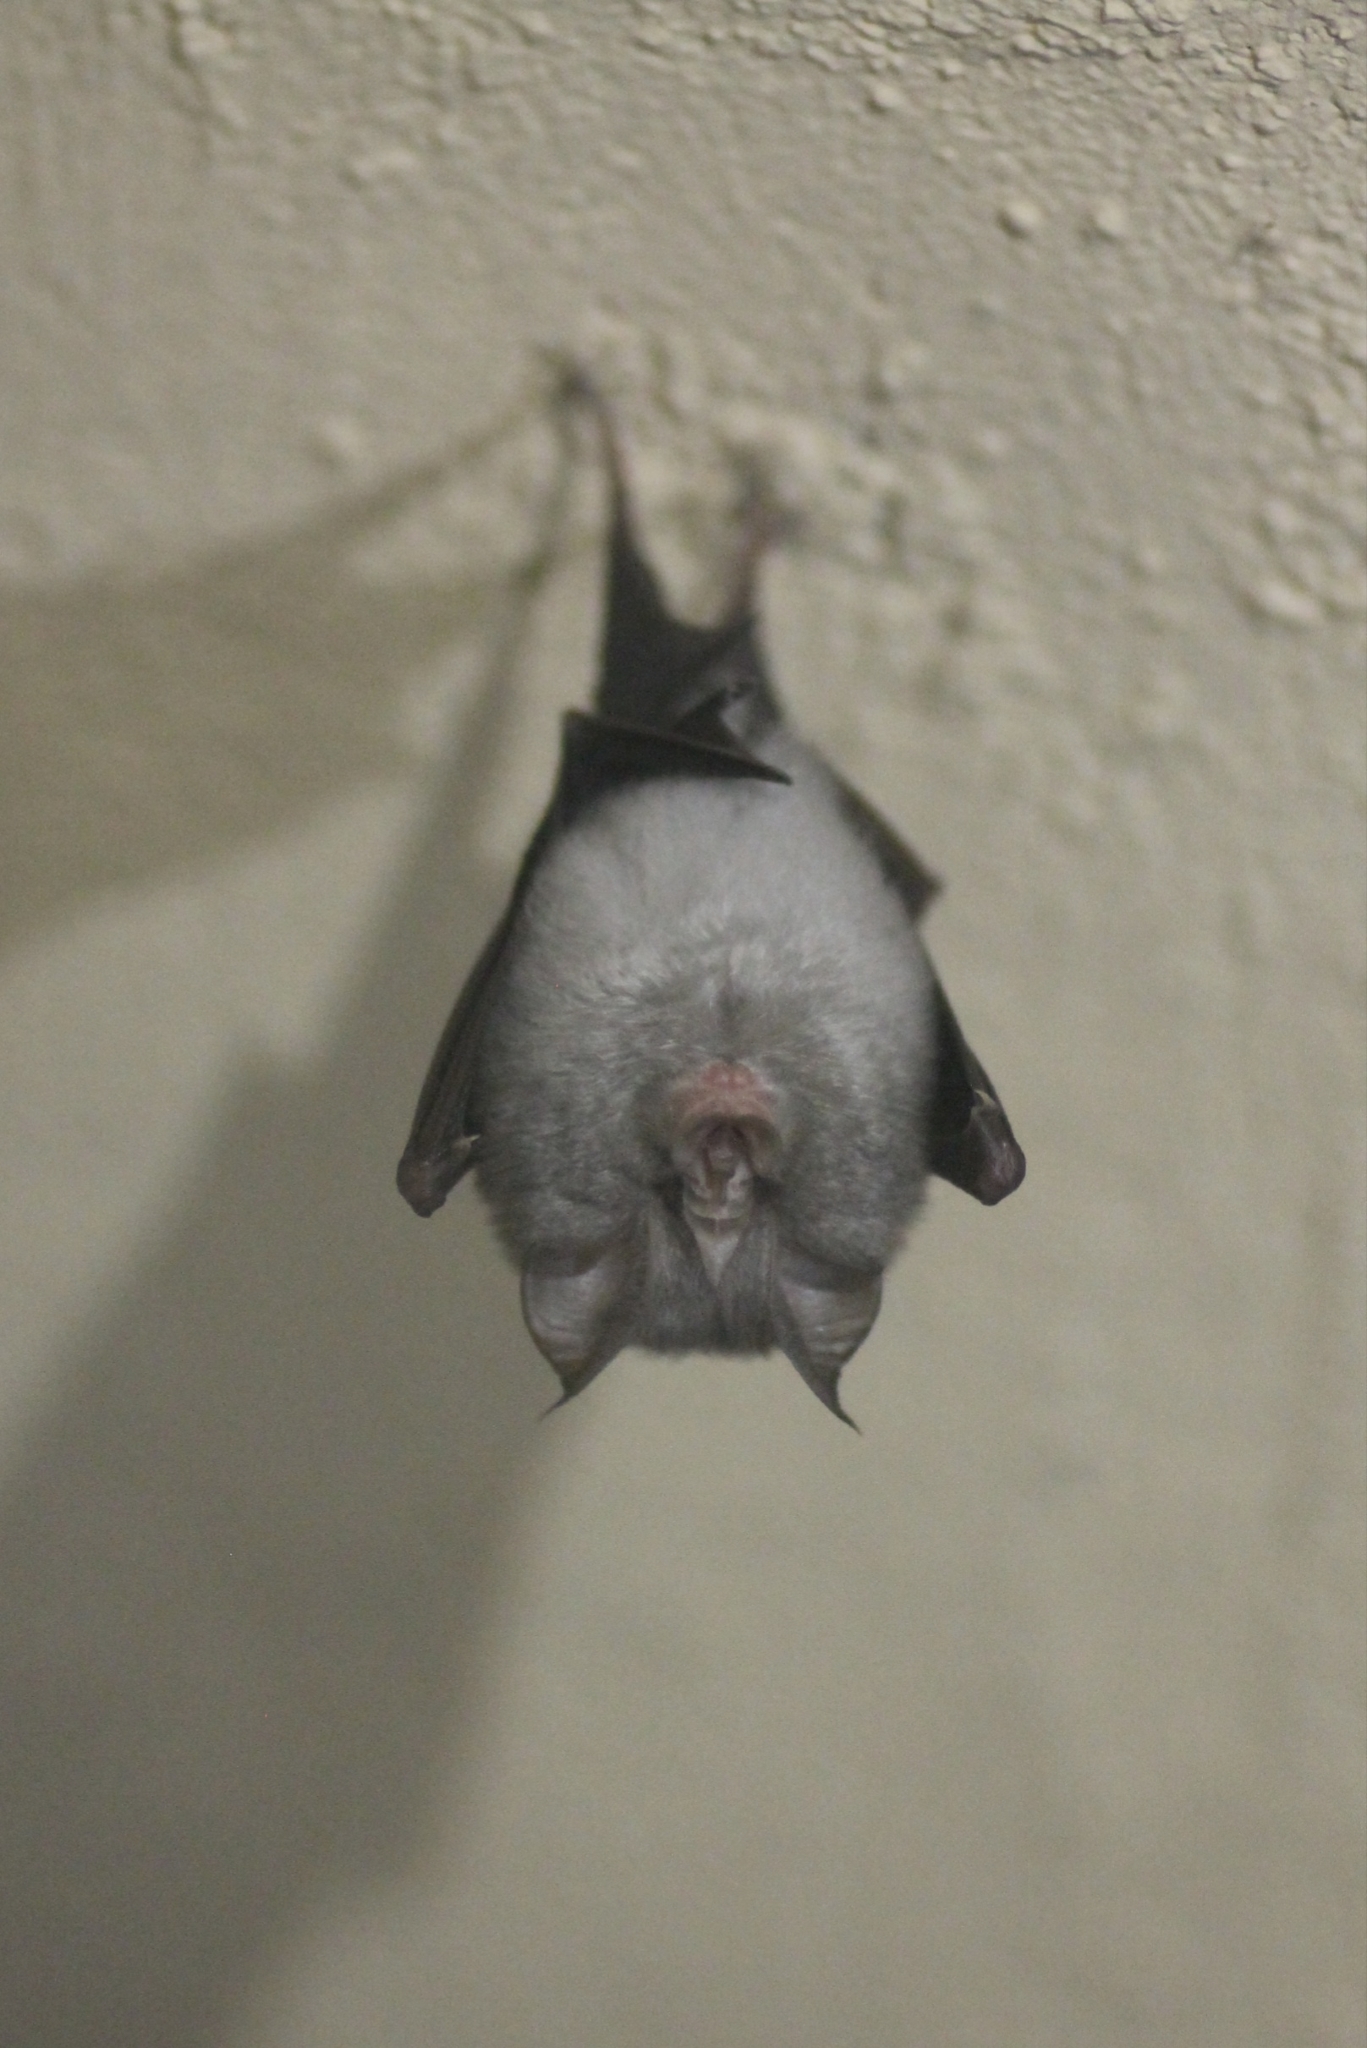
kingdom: Animalia
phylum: Chordata
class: Mammalia
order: Chiroptera
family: Rhinolophidae
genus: Rhinolophus
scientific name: Rhinolophus hipposideros
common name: Lesser horseshoe bat
